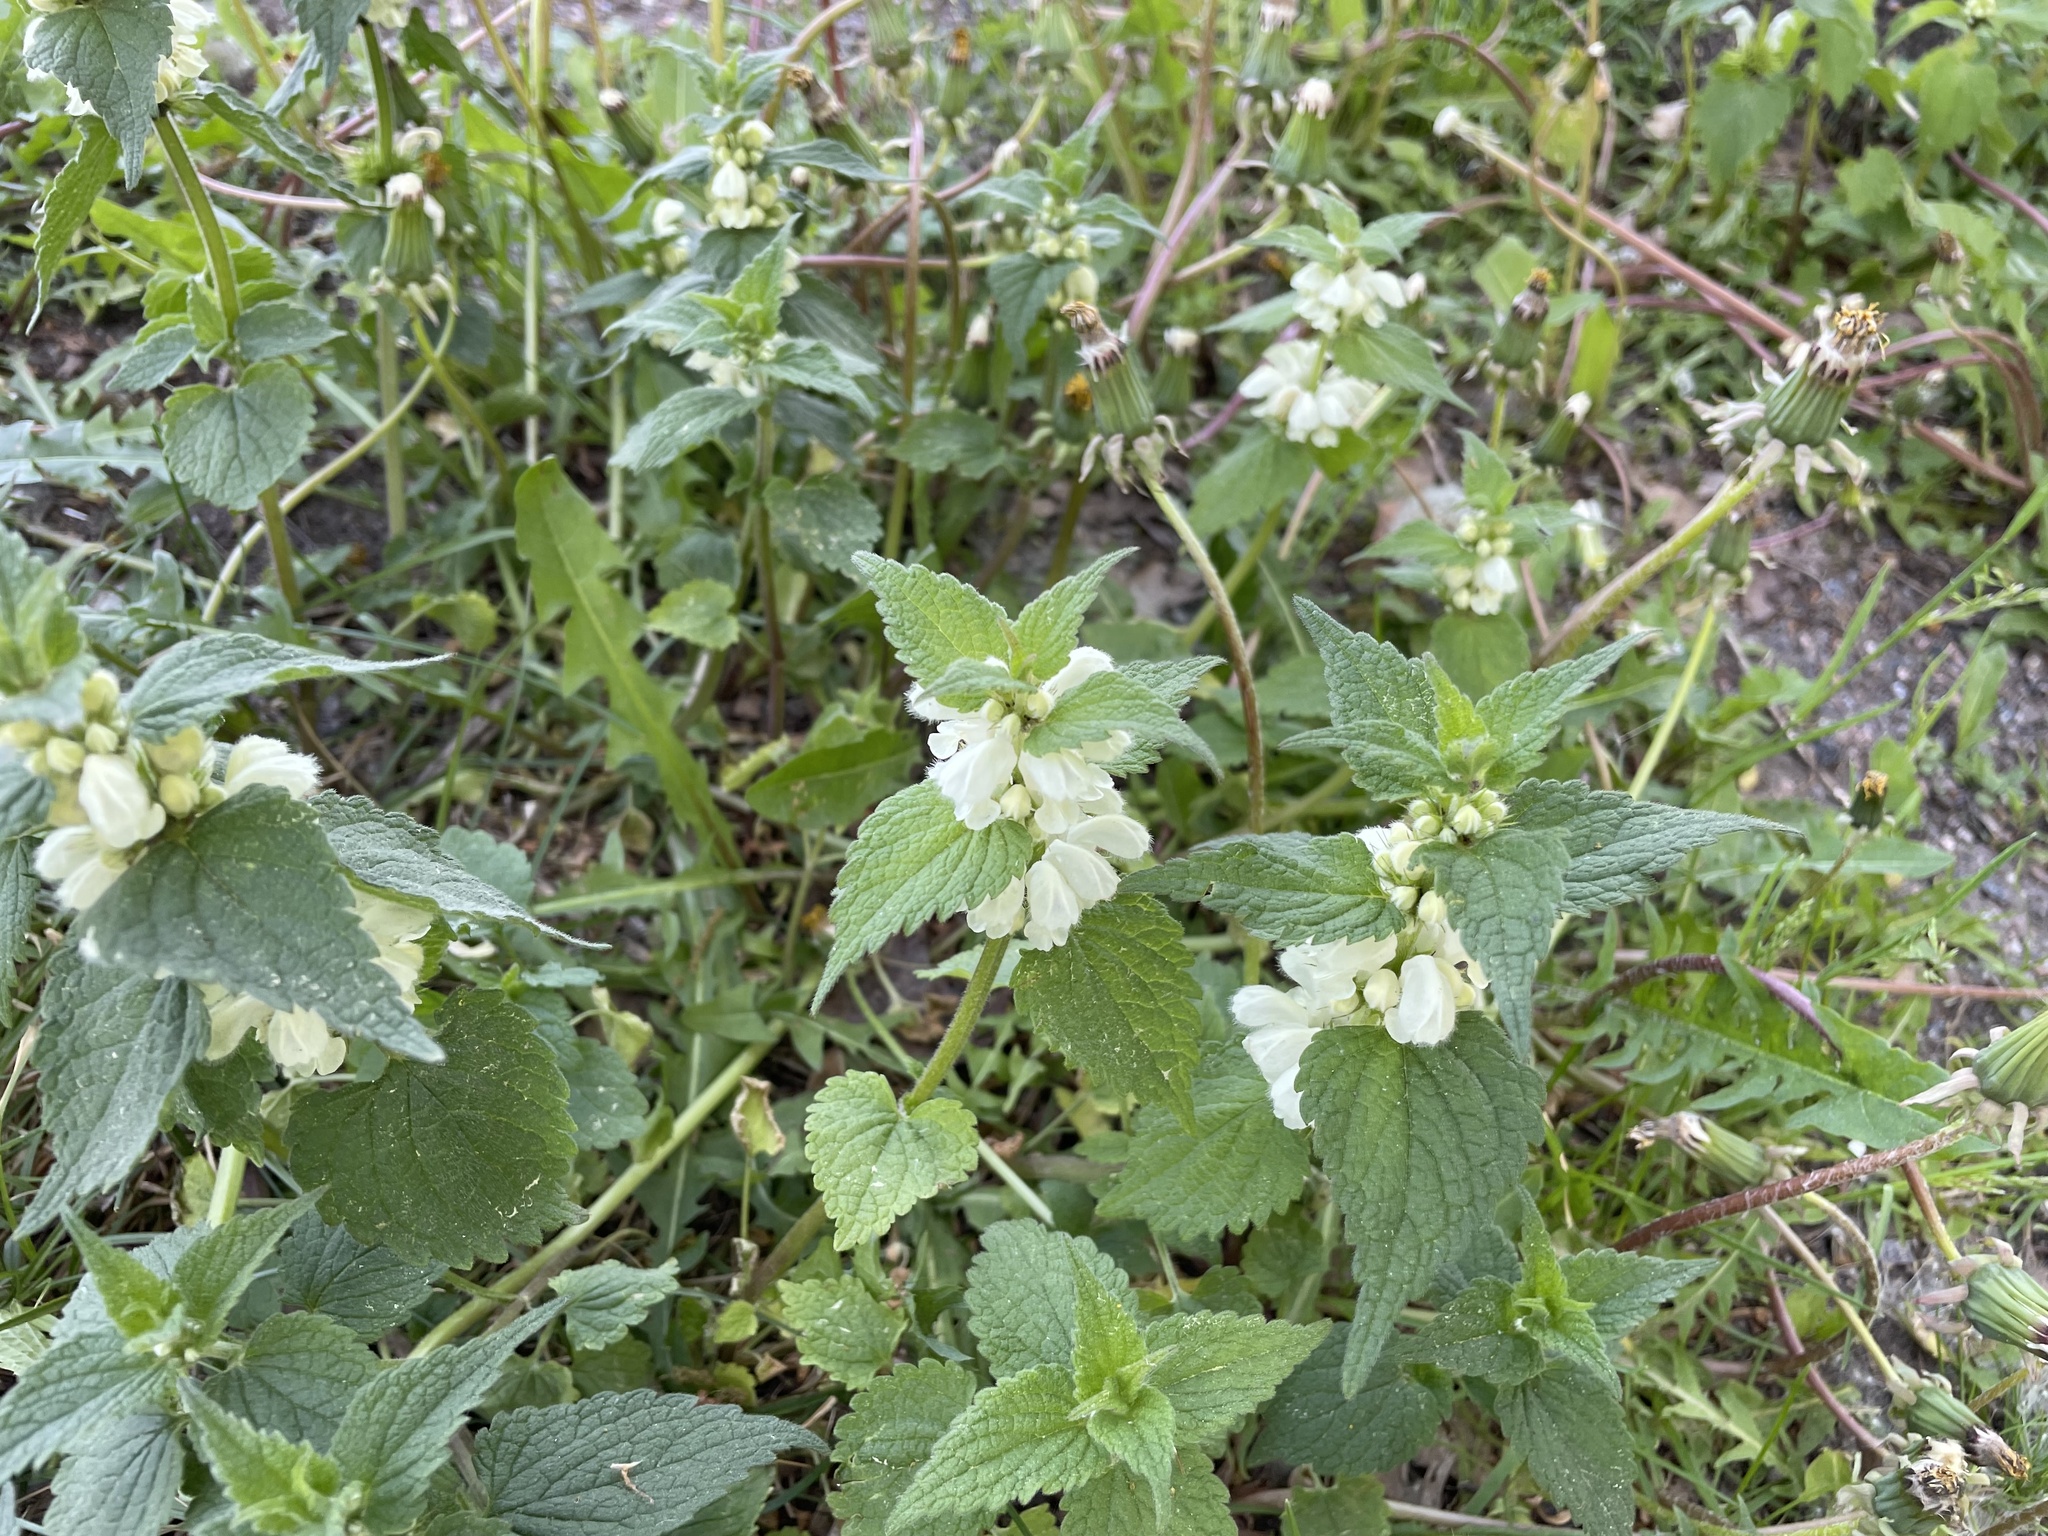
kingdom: Plantae
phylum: Tracheophyta
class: Magnoliopsida
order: Lamiales
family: Lamiaceae
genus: Lamium
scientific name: Lamium album
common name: White dead-nettle
